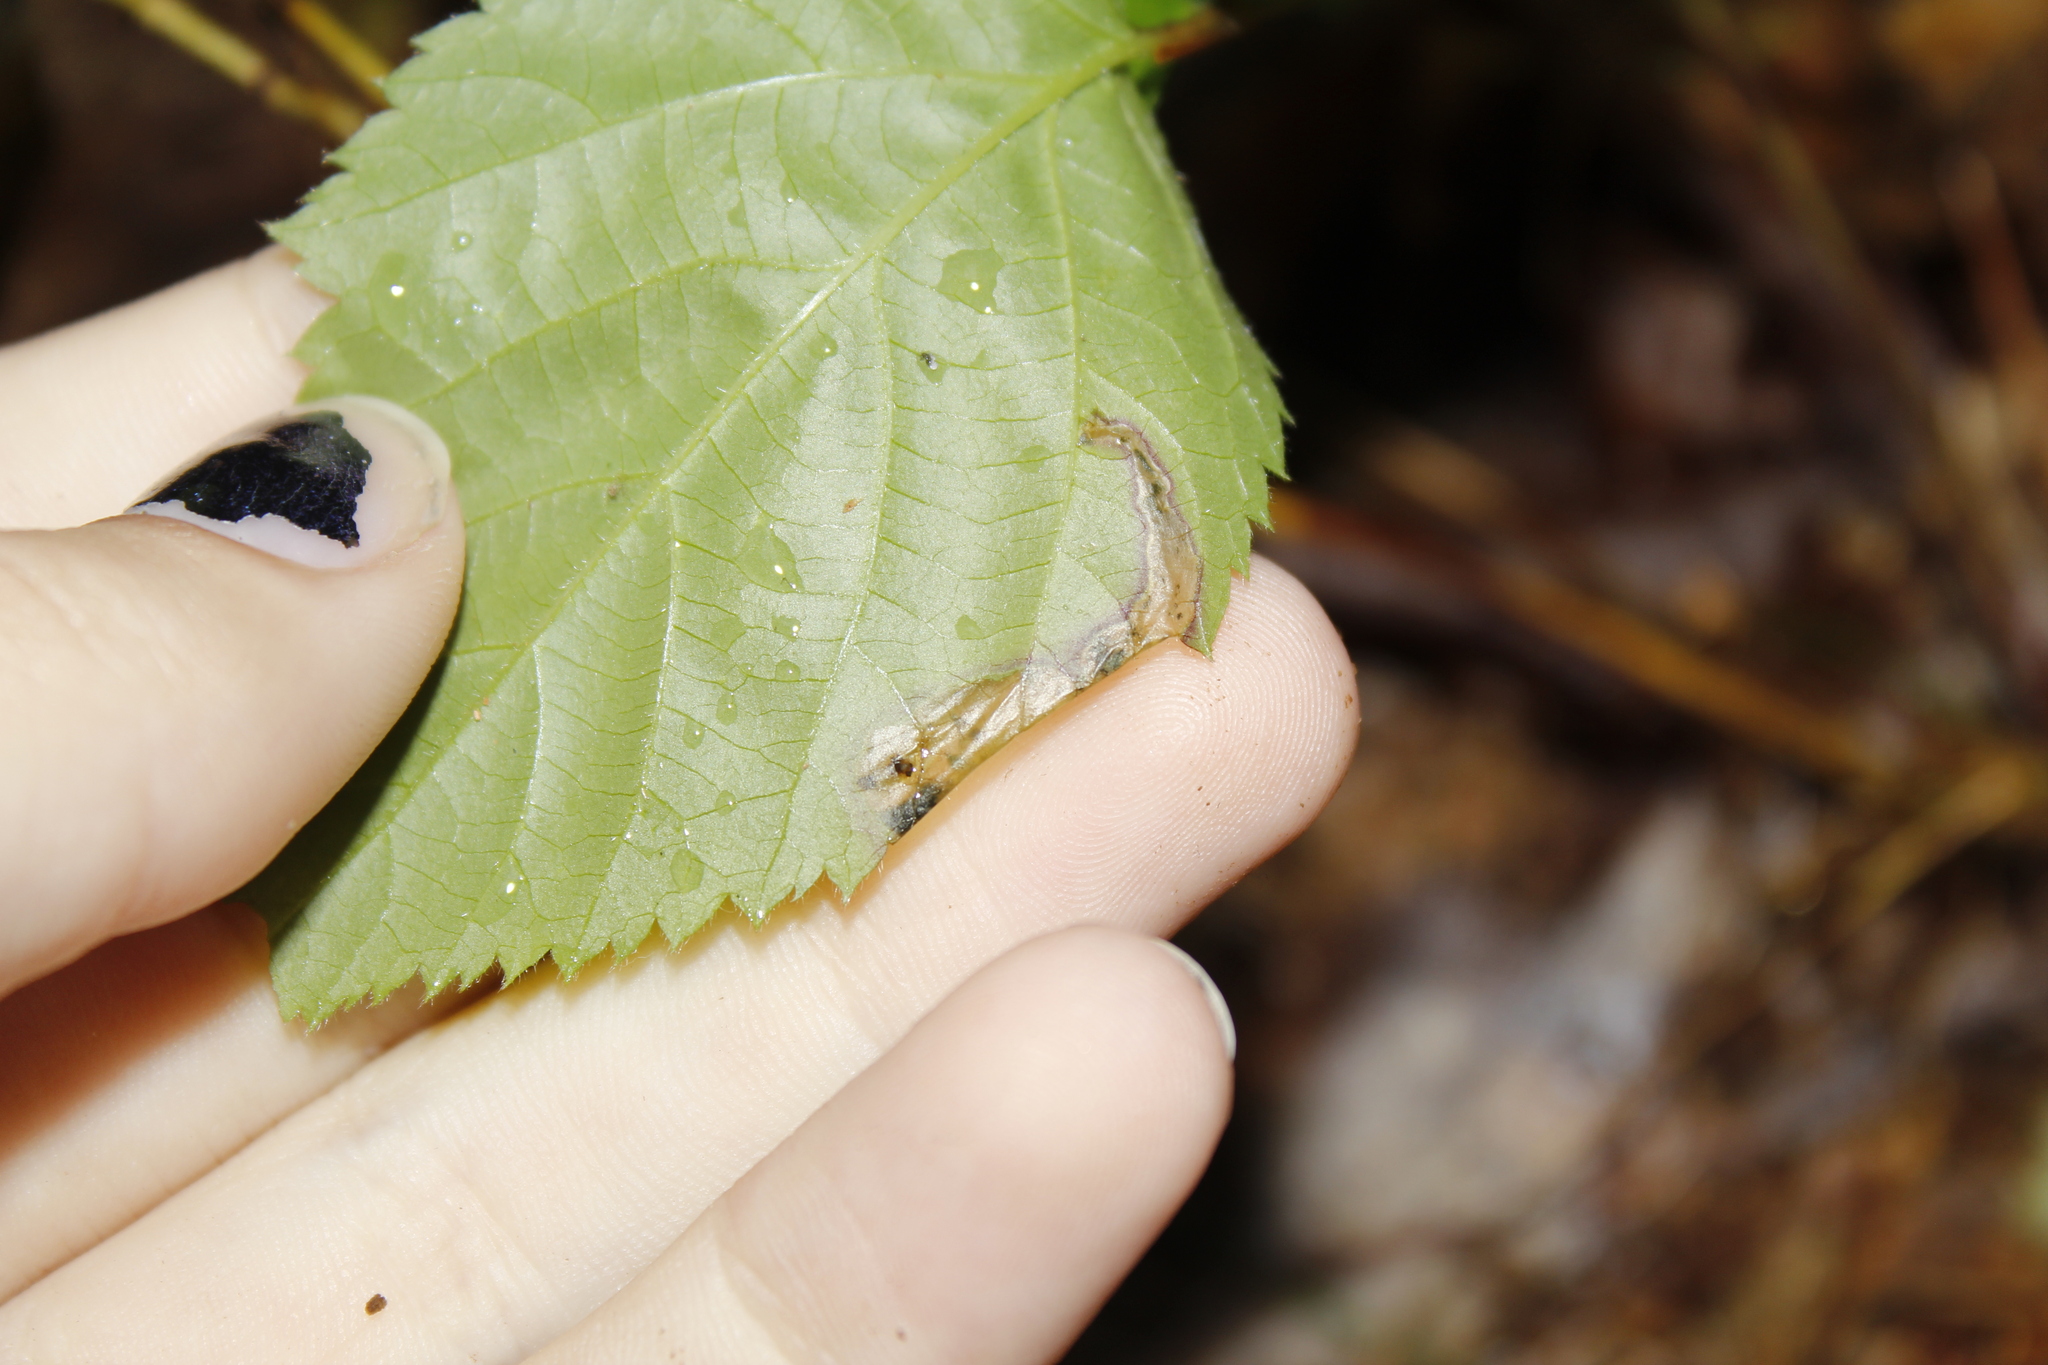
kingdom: Animalia
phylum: Arthropoda
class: Insecta
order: Hymenoptera
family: Tenthredinidae
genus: Metallus
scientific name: Metallus rohweri
